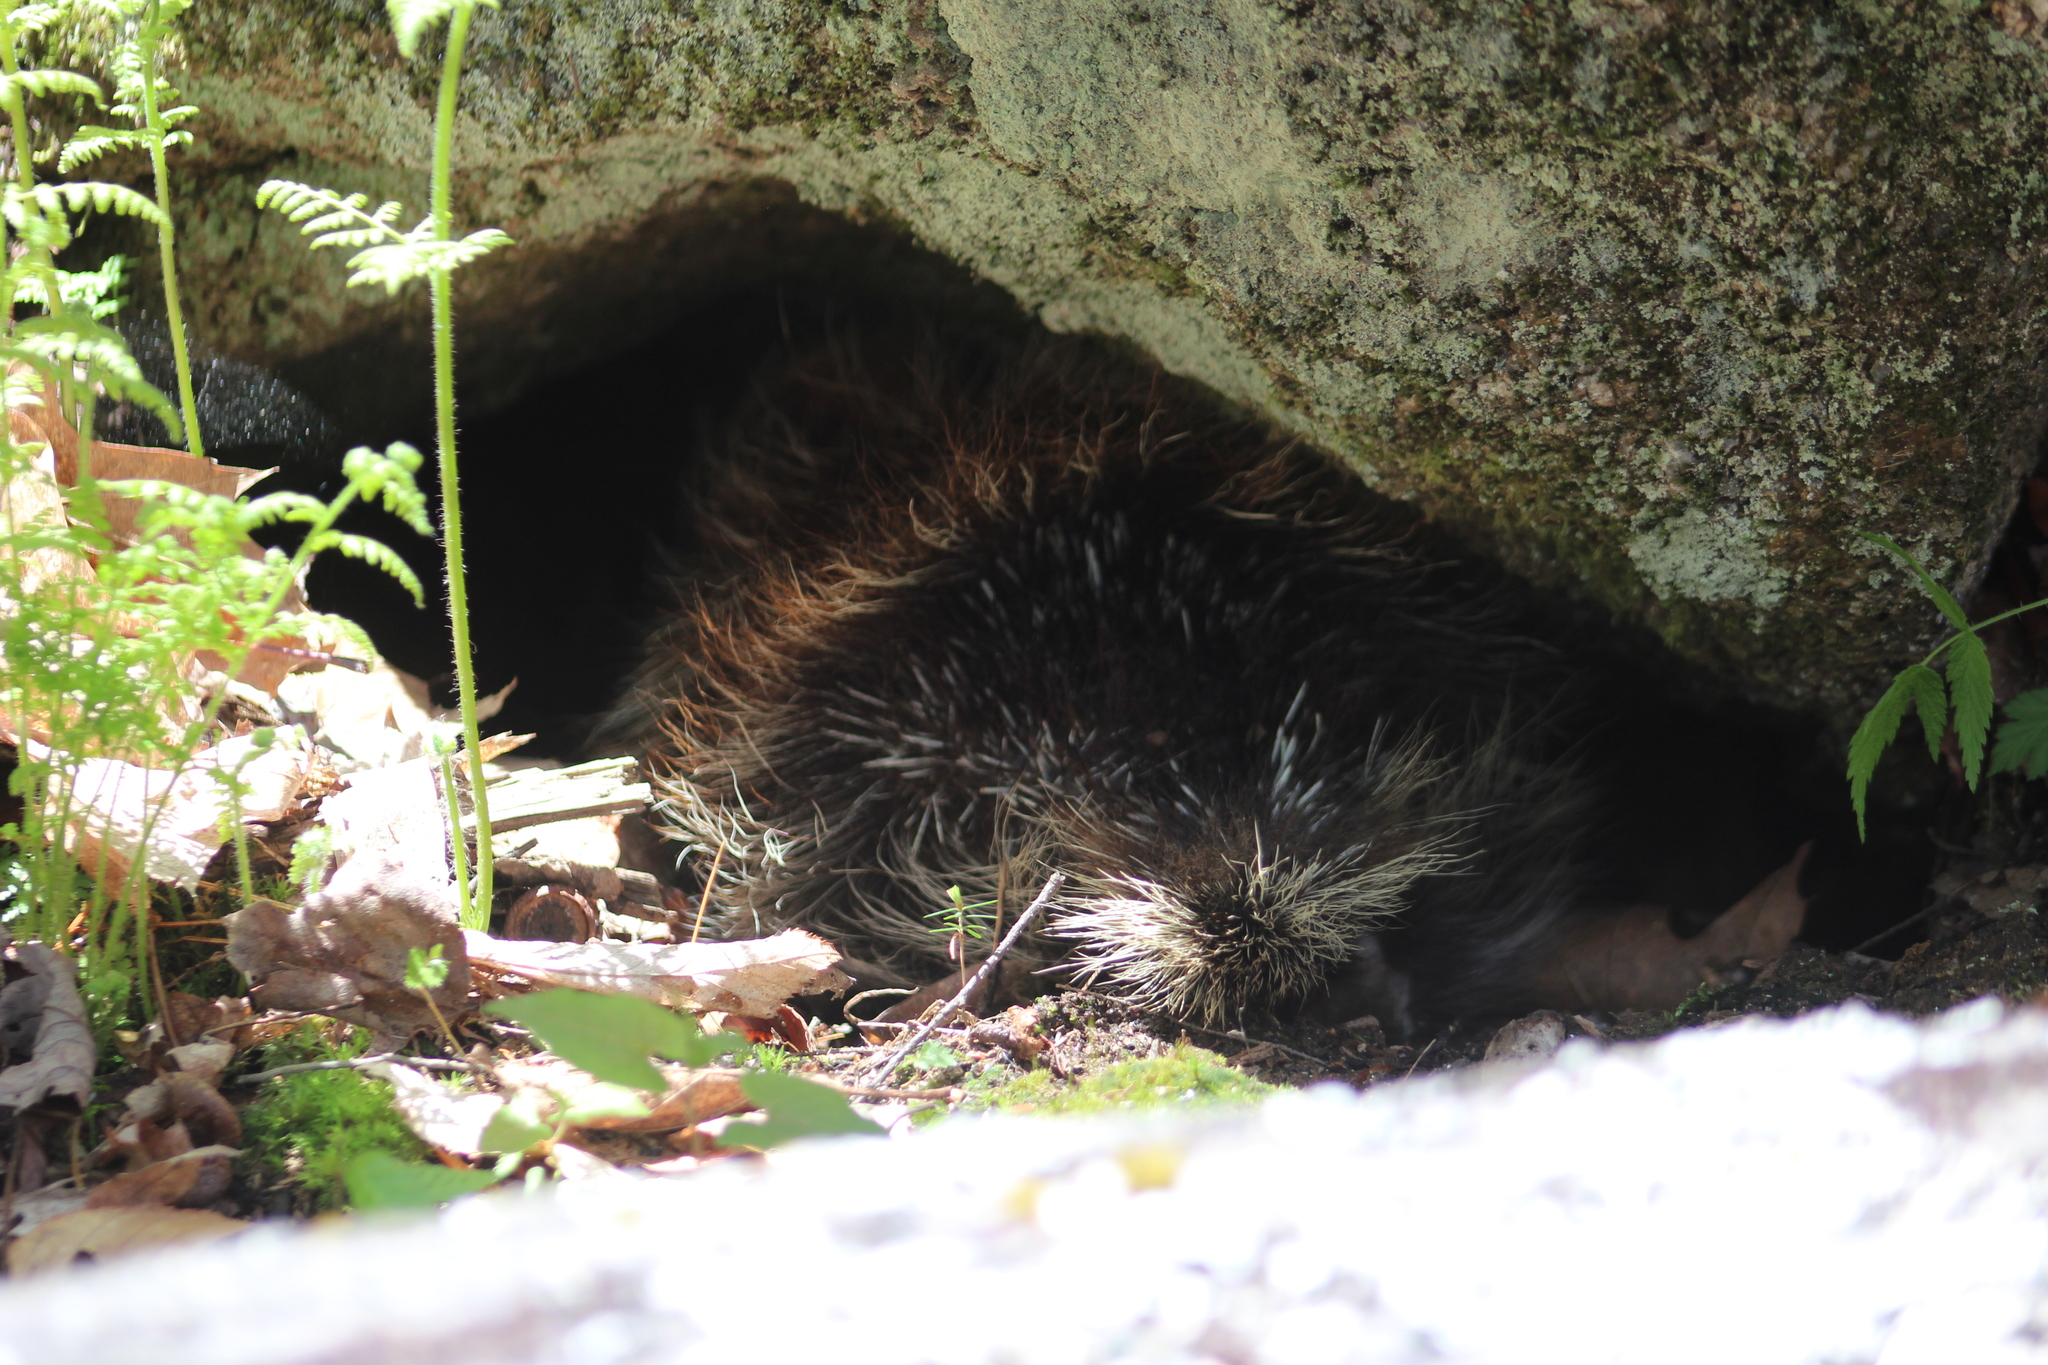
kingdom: Animalia
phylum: Chordata
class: Mammalia
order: Rodentia
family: Erethizontidae
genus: Erethizon
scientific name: Erethizon dorsatus
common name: North american porcupine
